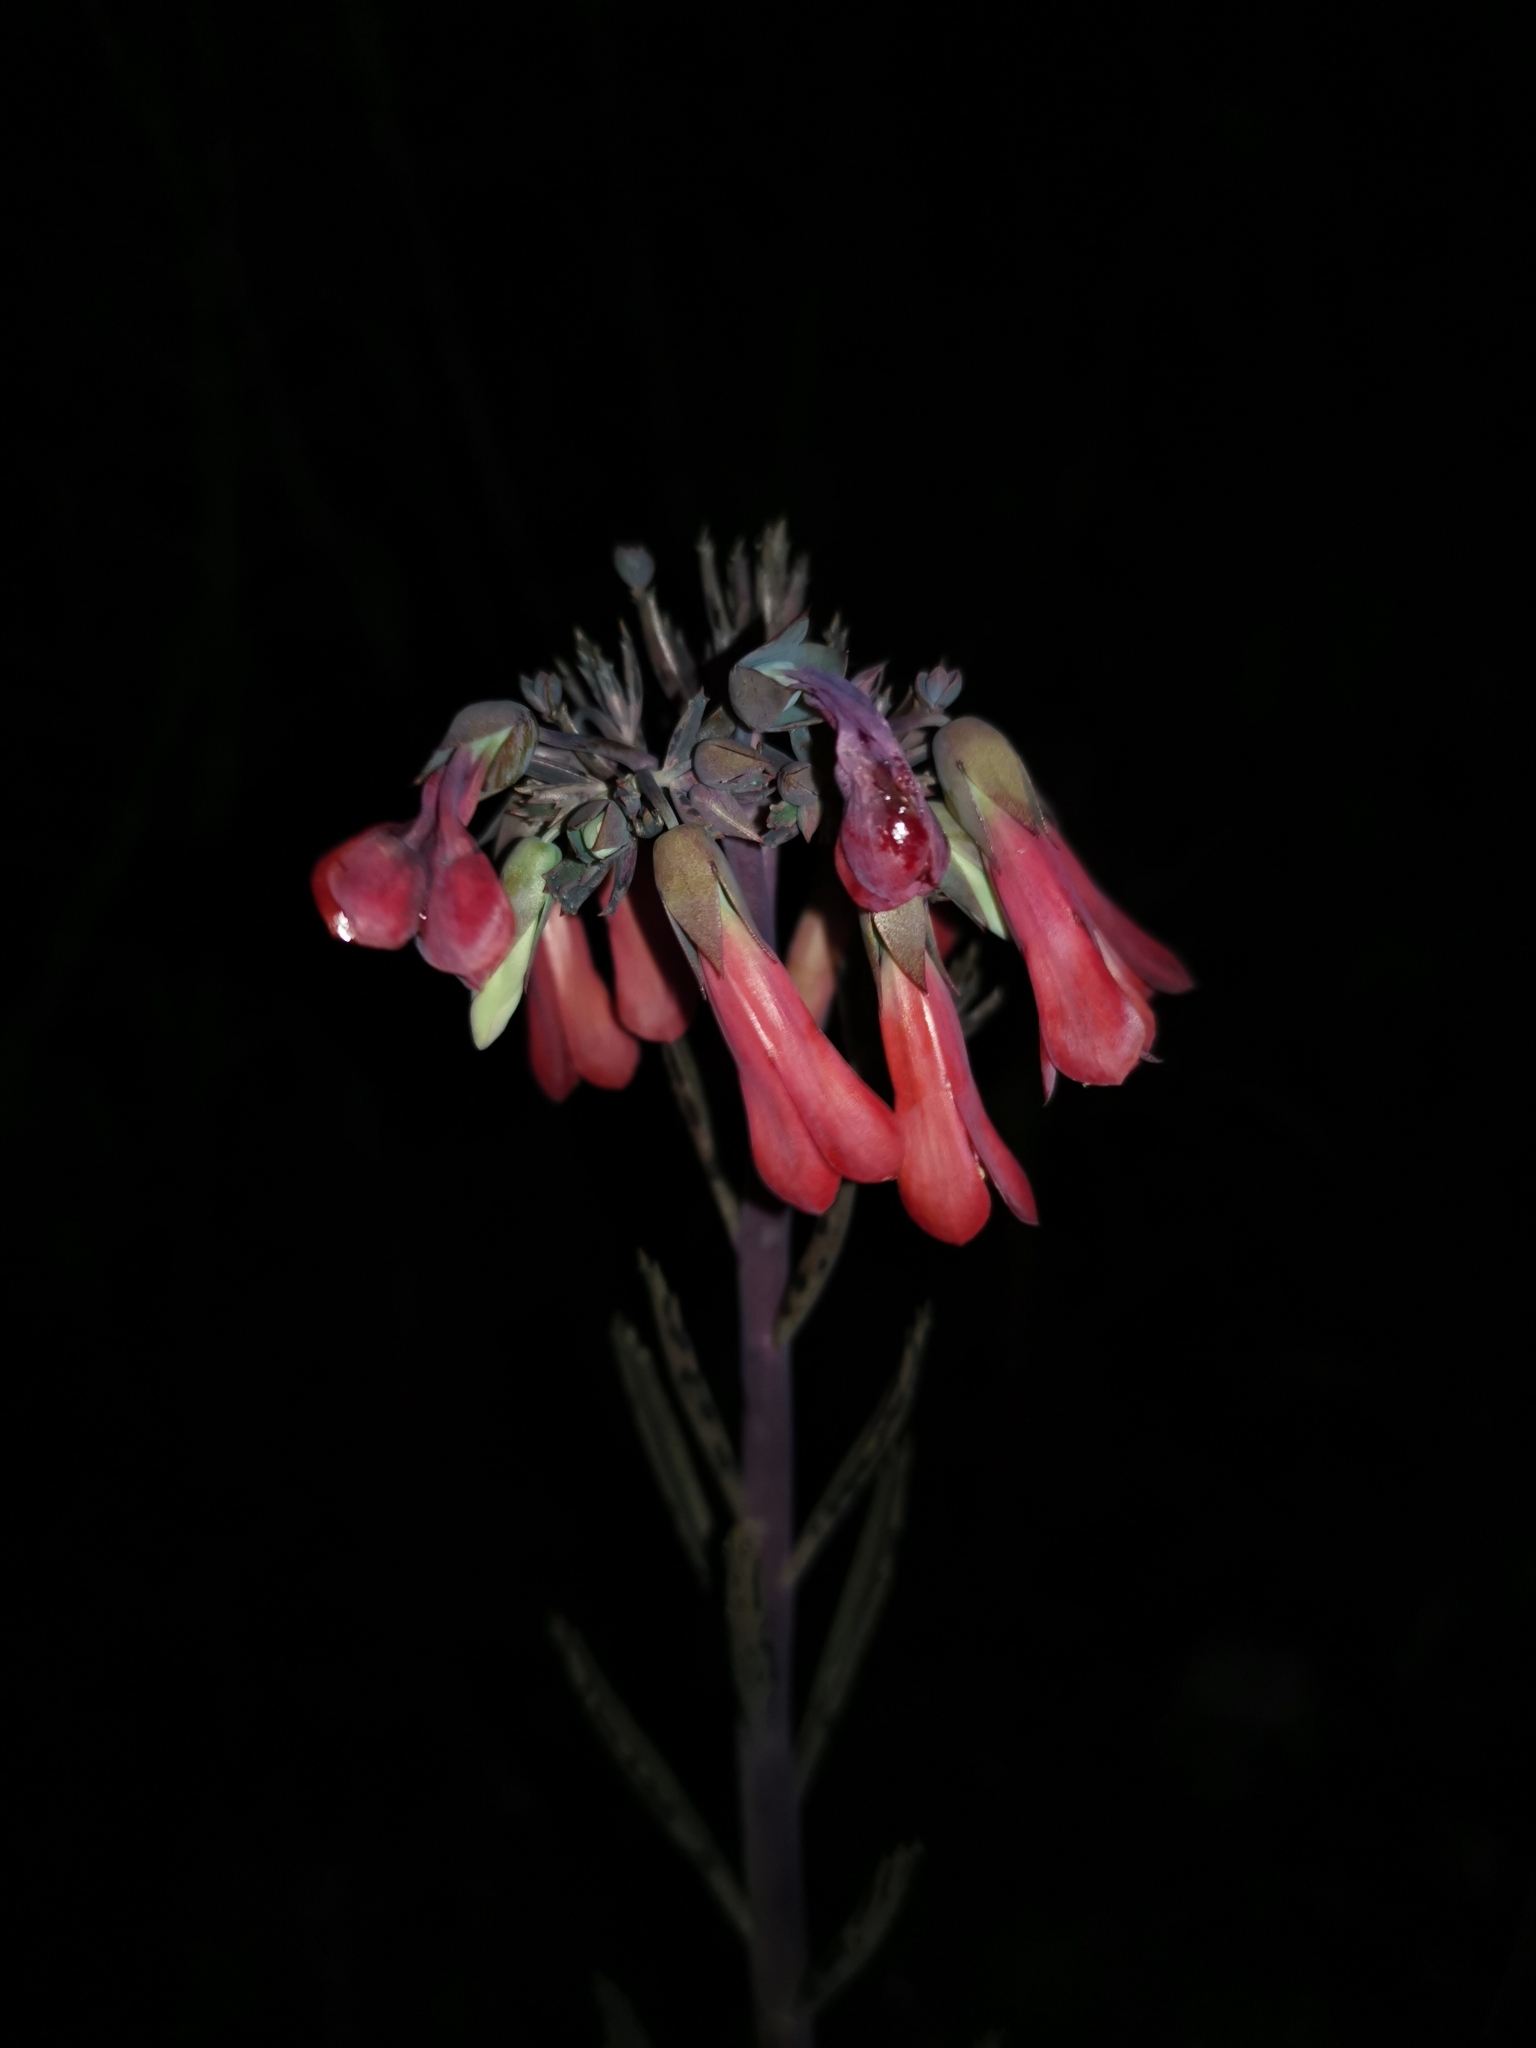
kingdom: Plantae
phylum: Tracheophyta
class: Magnoliopsida
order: Saxifragales
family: Crassulaceae
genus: Kalanchoe
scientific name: Kalanchoe houghtonii
